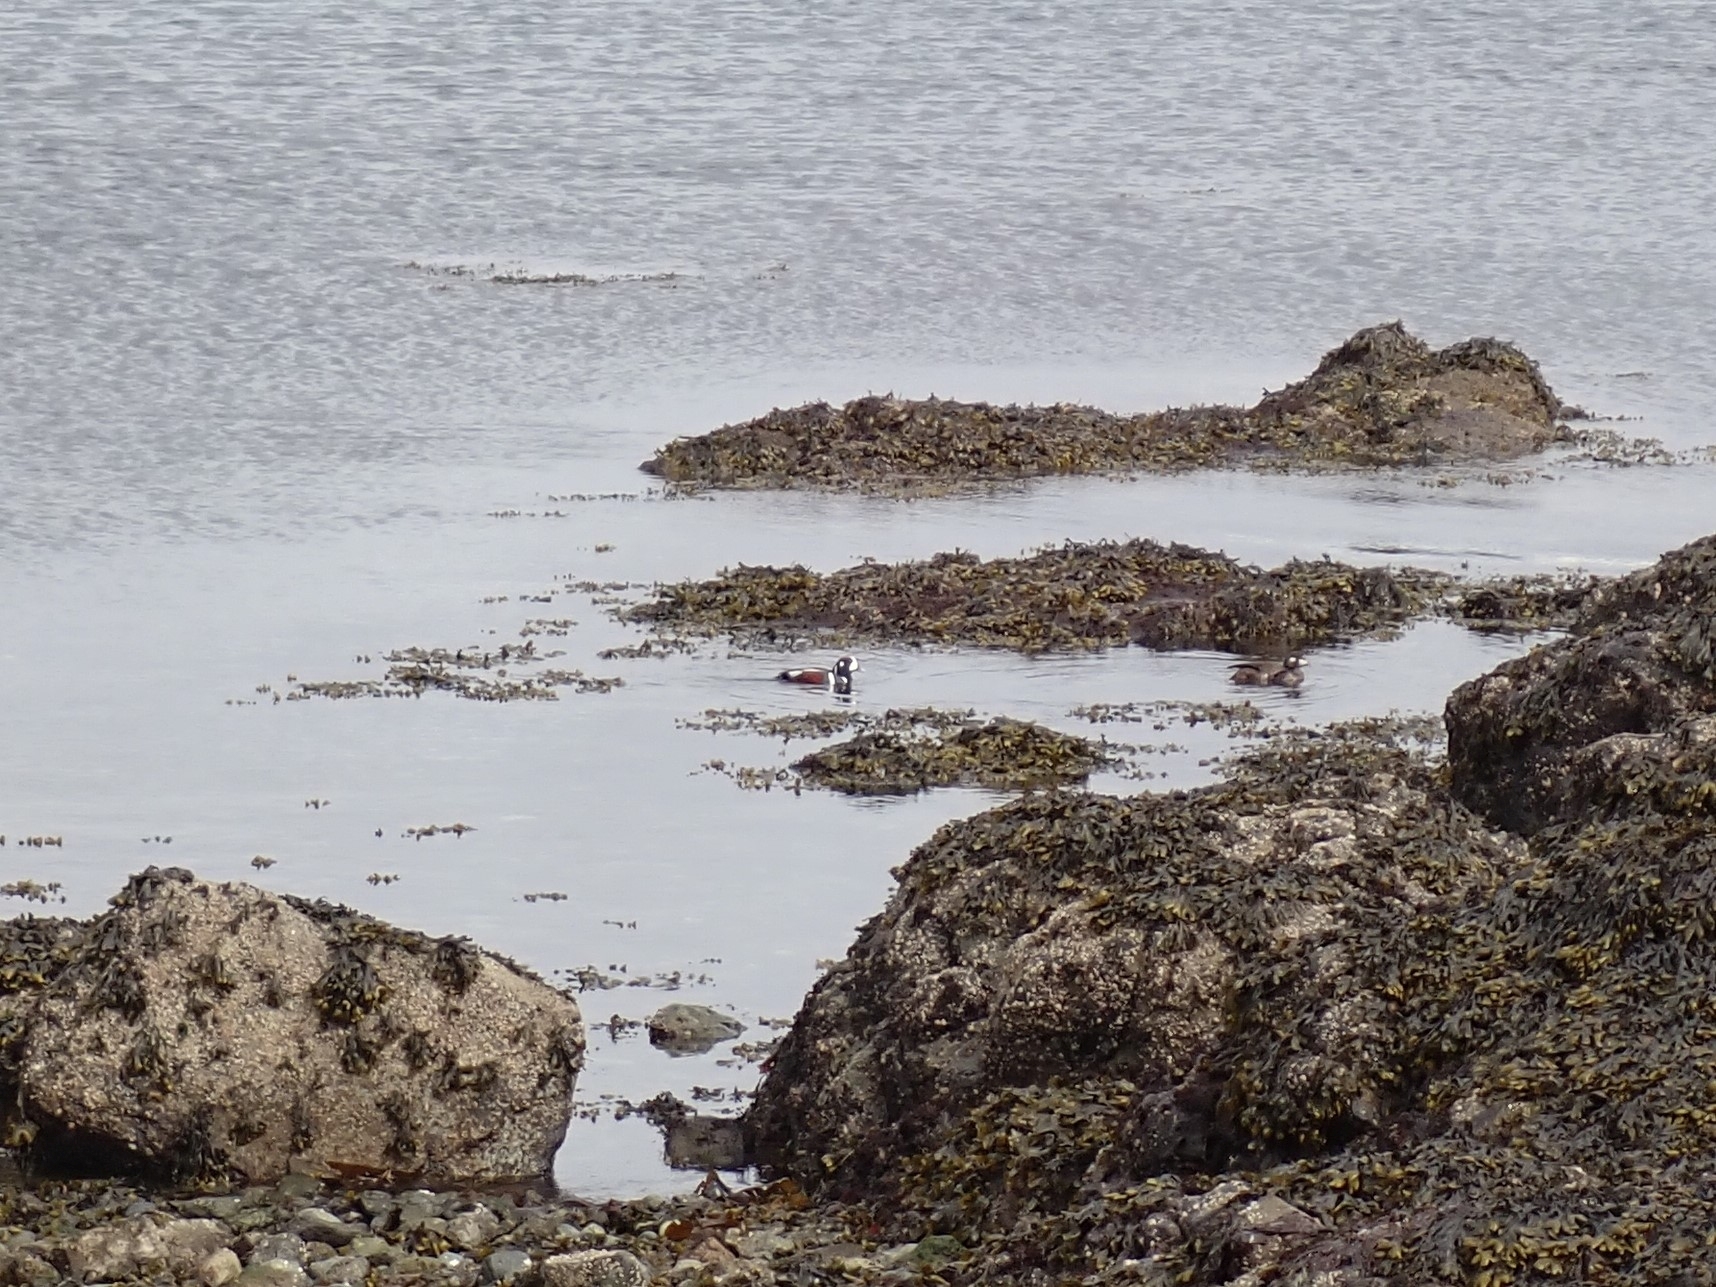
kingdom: Animalia
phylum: Chordata
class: Aves
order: Anseriformes
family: Anatidae
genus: Histrionicus
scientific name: Histrionicus histrionicus
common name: Harlequin duck
